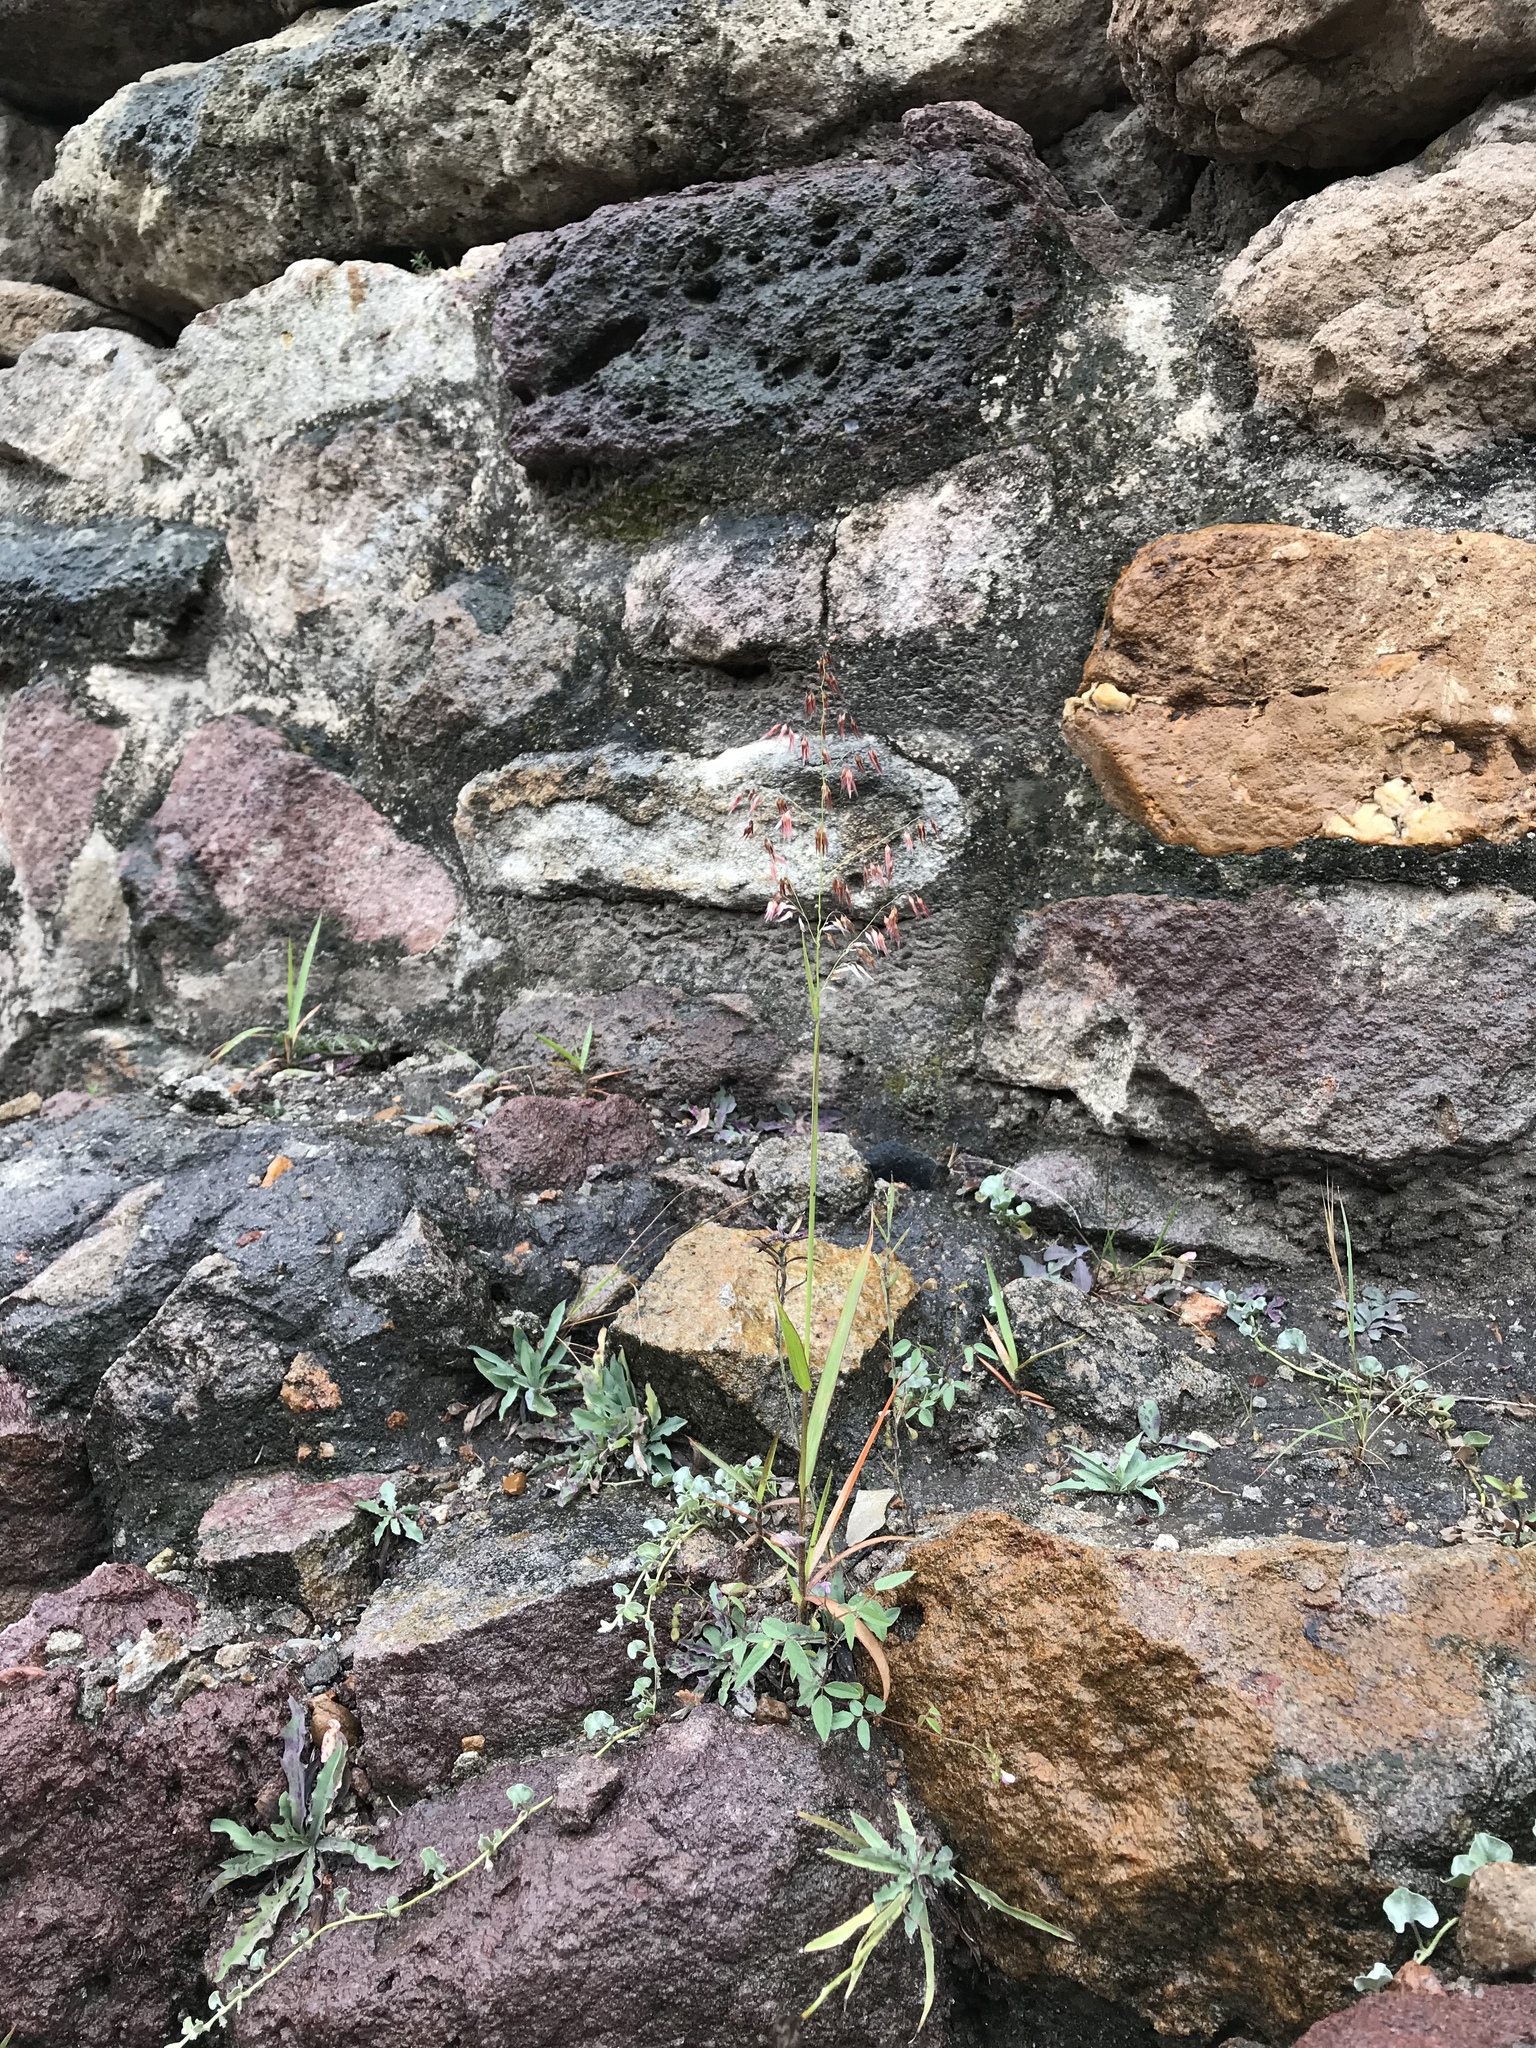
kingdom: Plantae
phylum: Tracheophyta
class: Liliopsida
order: Poales
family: Poaceae
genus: Melinis
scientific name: Melinis repens
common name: Rose natal grass
